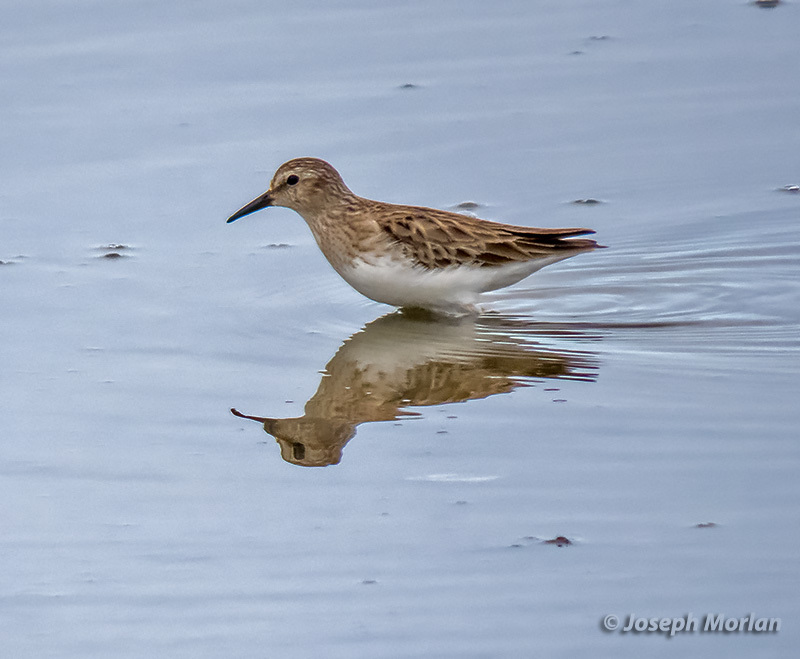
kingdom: Animalia
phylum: Chordata
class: Aves
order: Charadriiformes
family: Scolopacidae
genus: Calidris
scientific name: Calidris minutilla
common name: Least sandpiper
